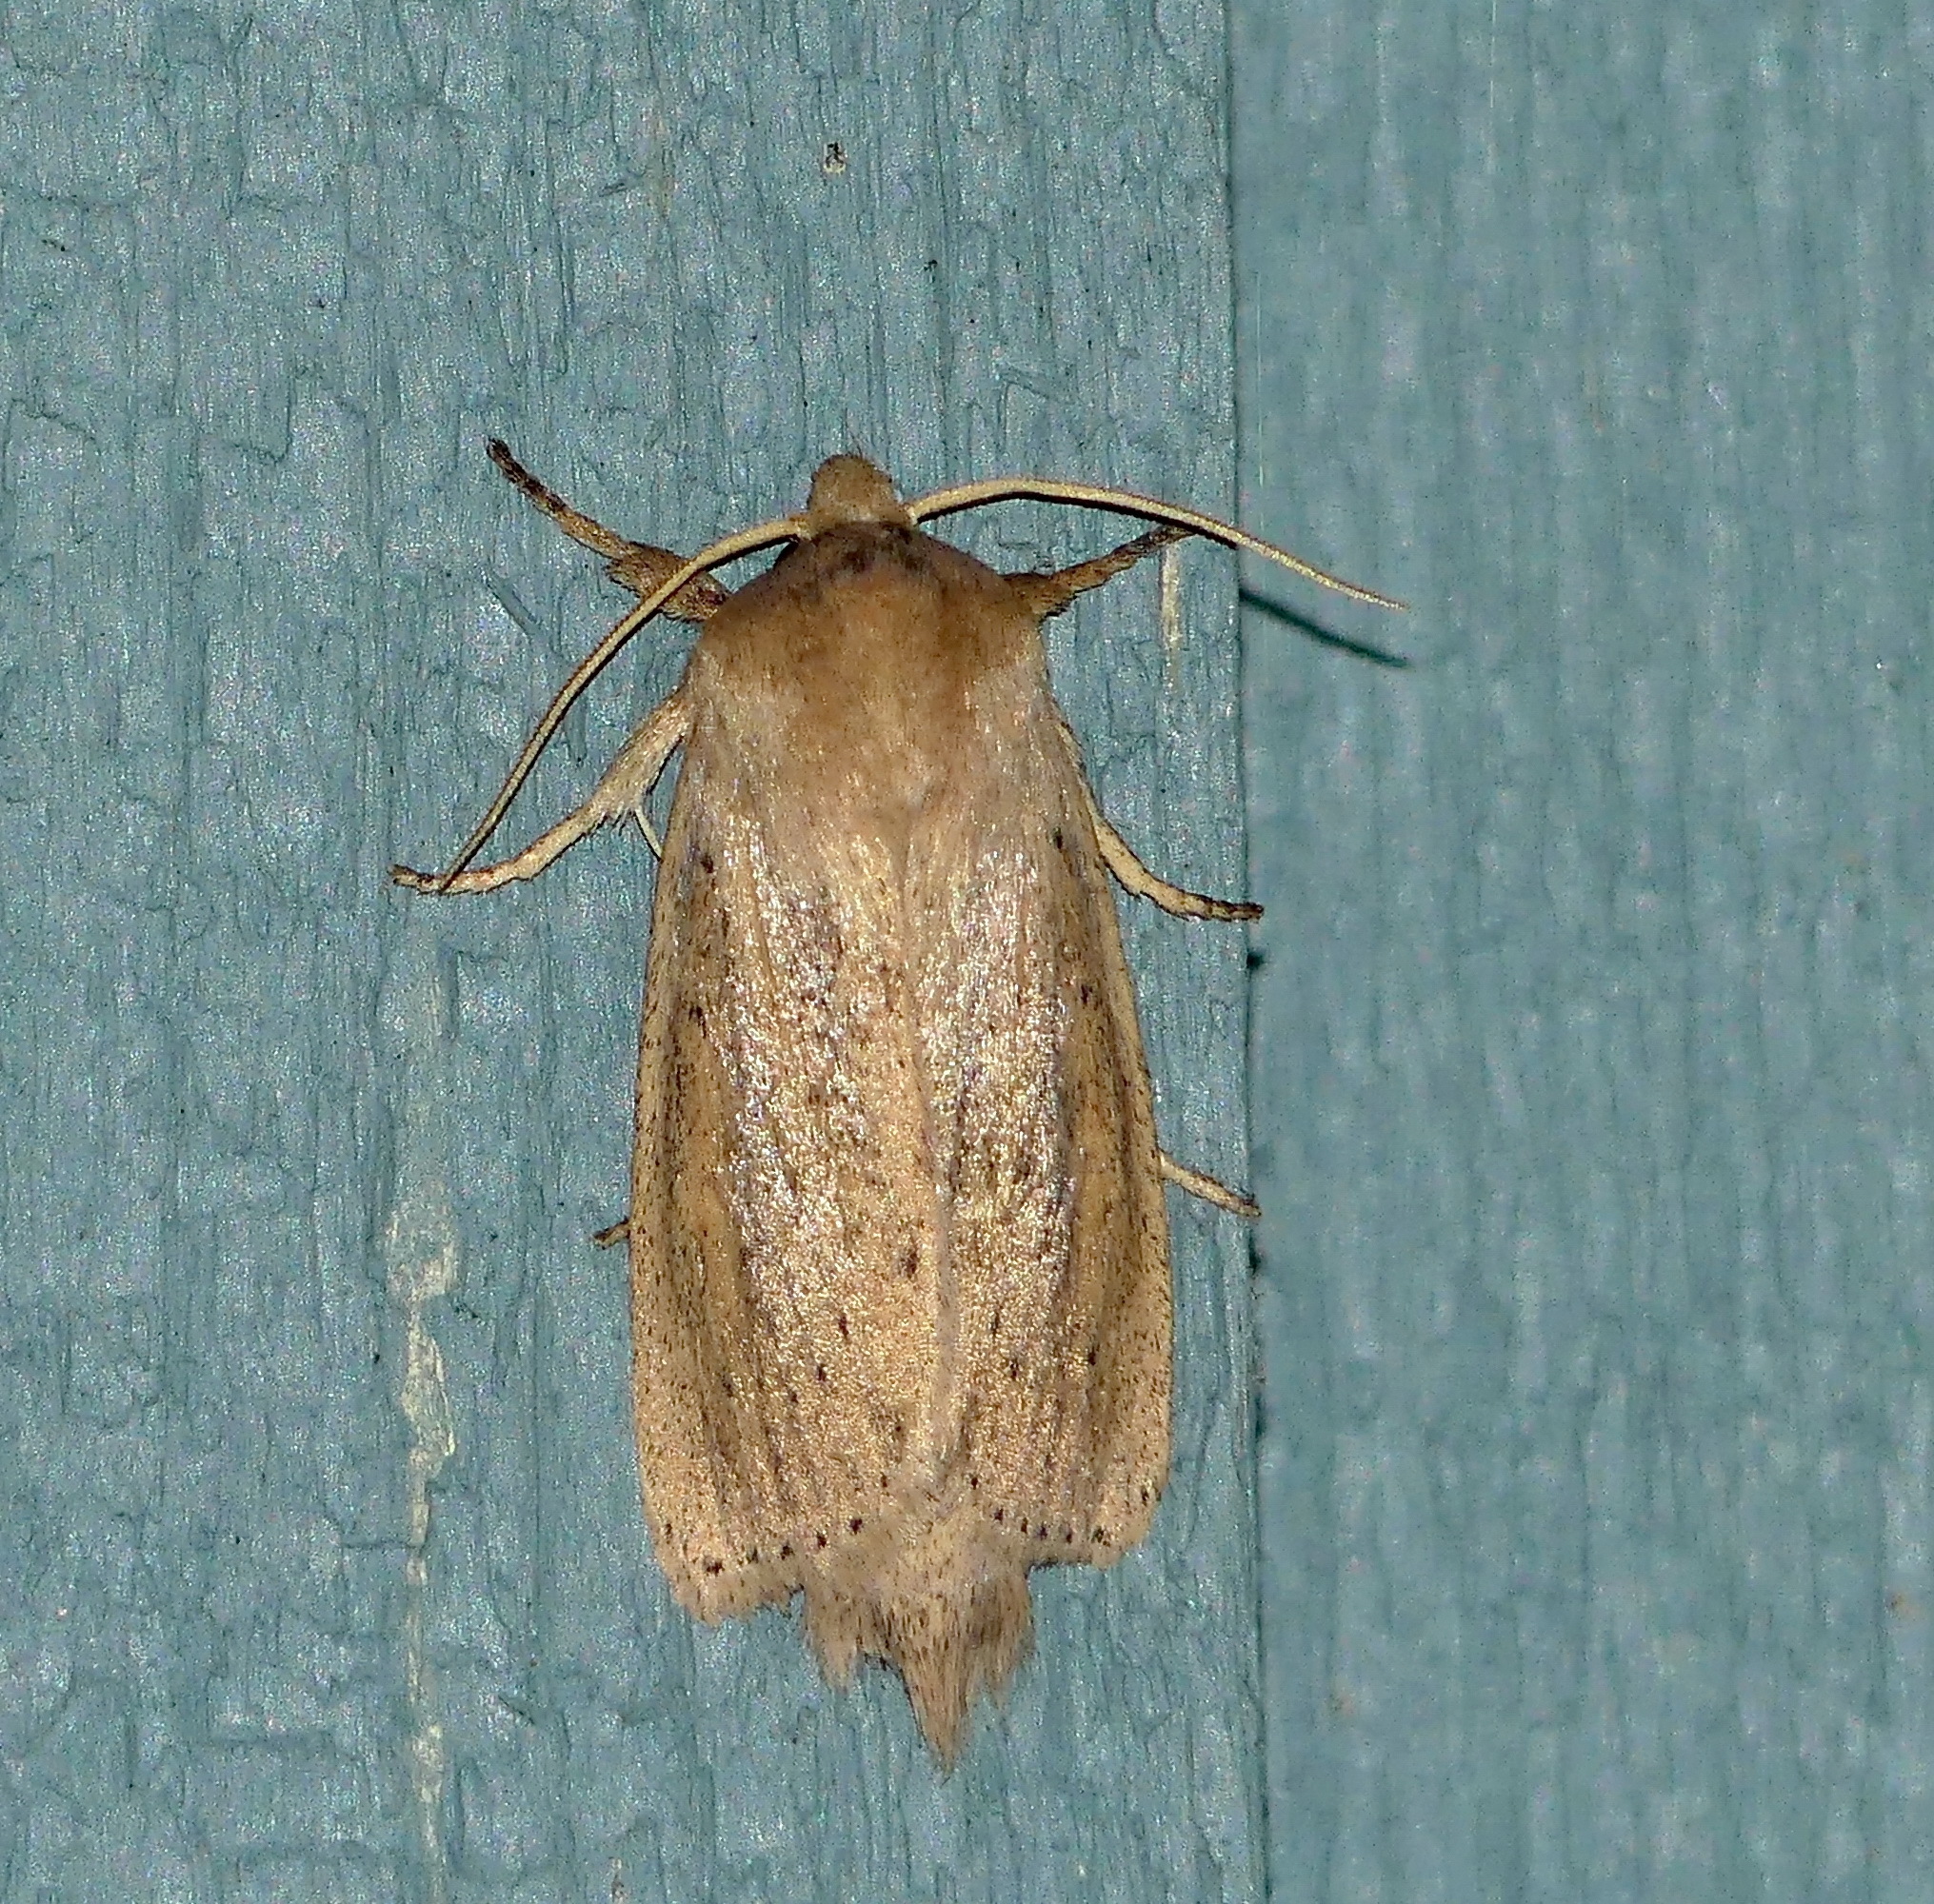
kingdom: Animalia
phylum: Arthropoda
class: Insecta
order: Lepidoptera
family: Noctuidae
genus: Globia
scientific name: Globia oblonga
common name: Oblong sedge borer moth
